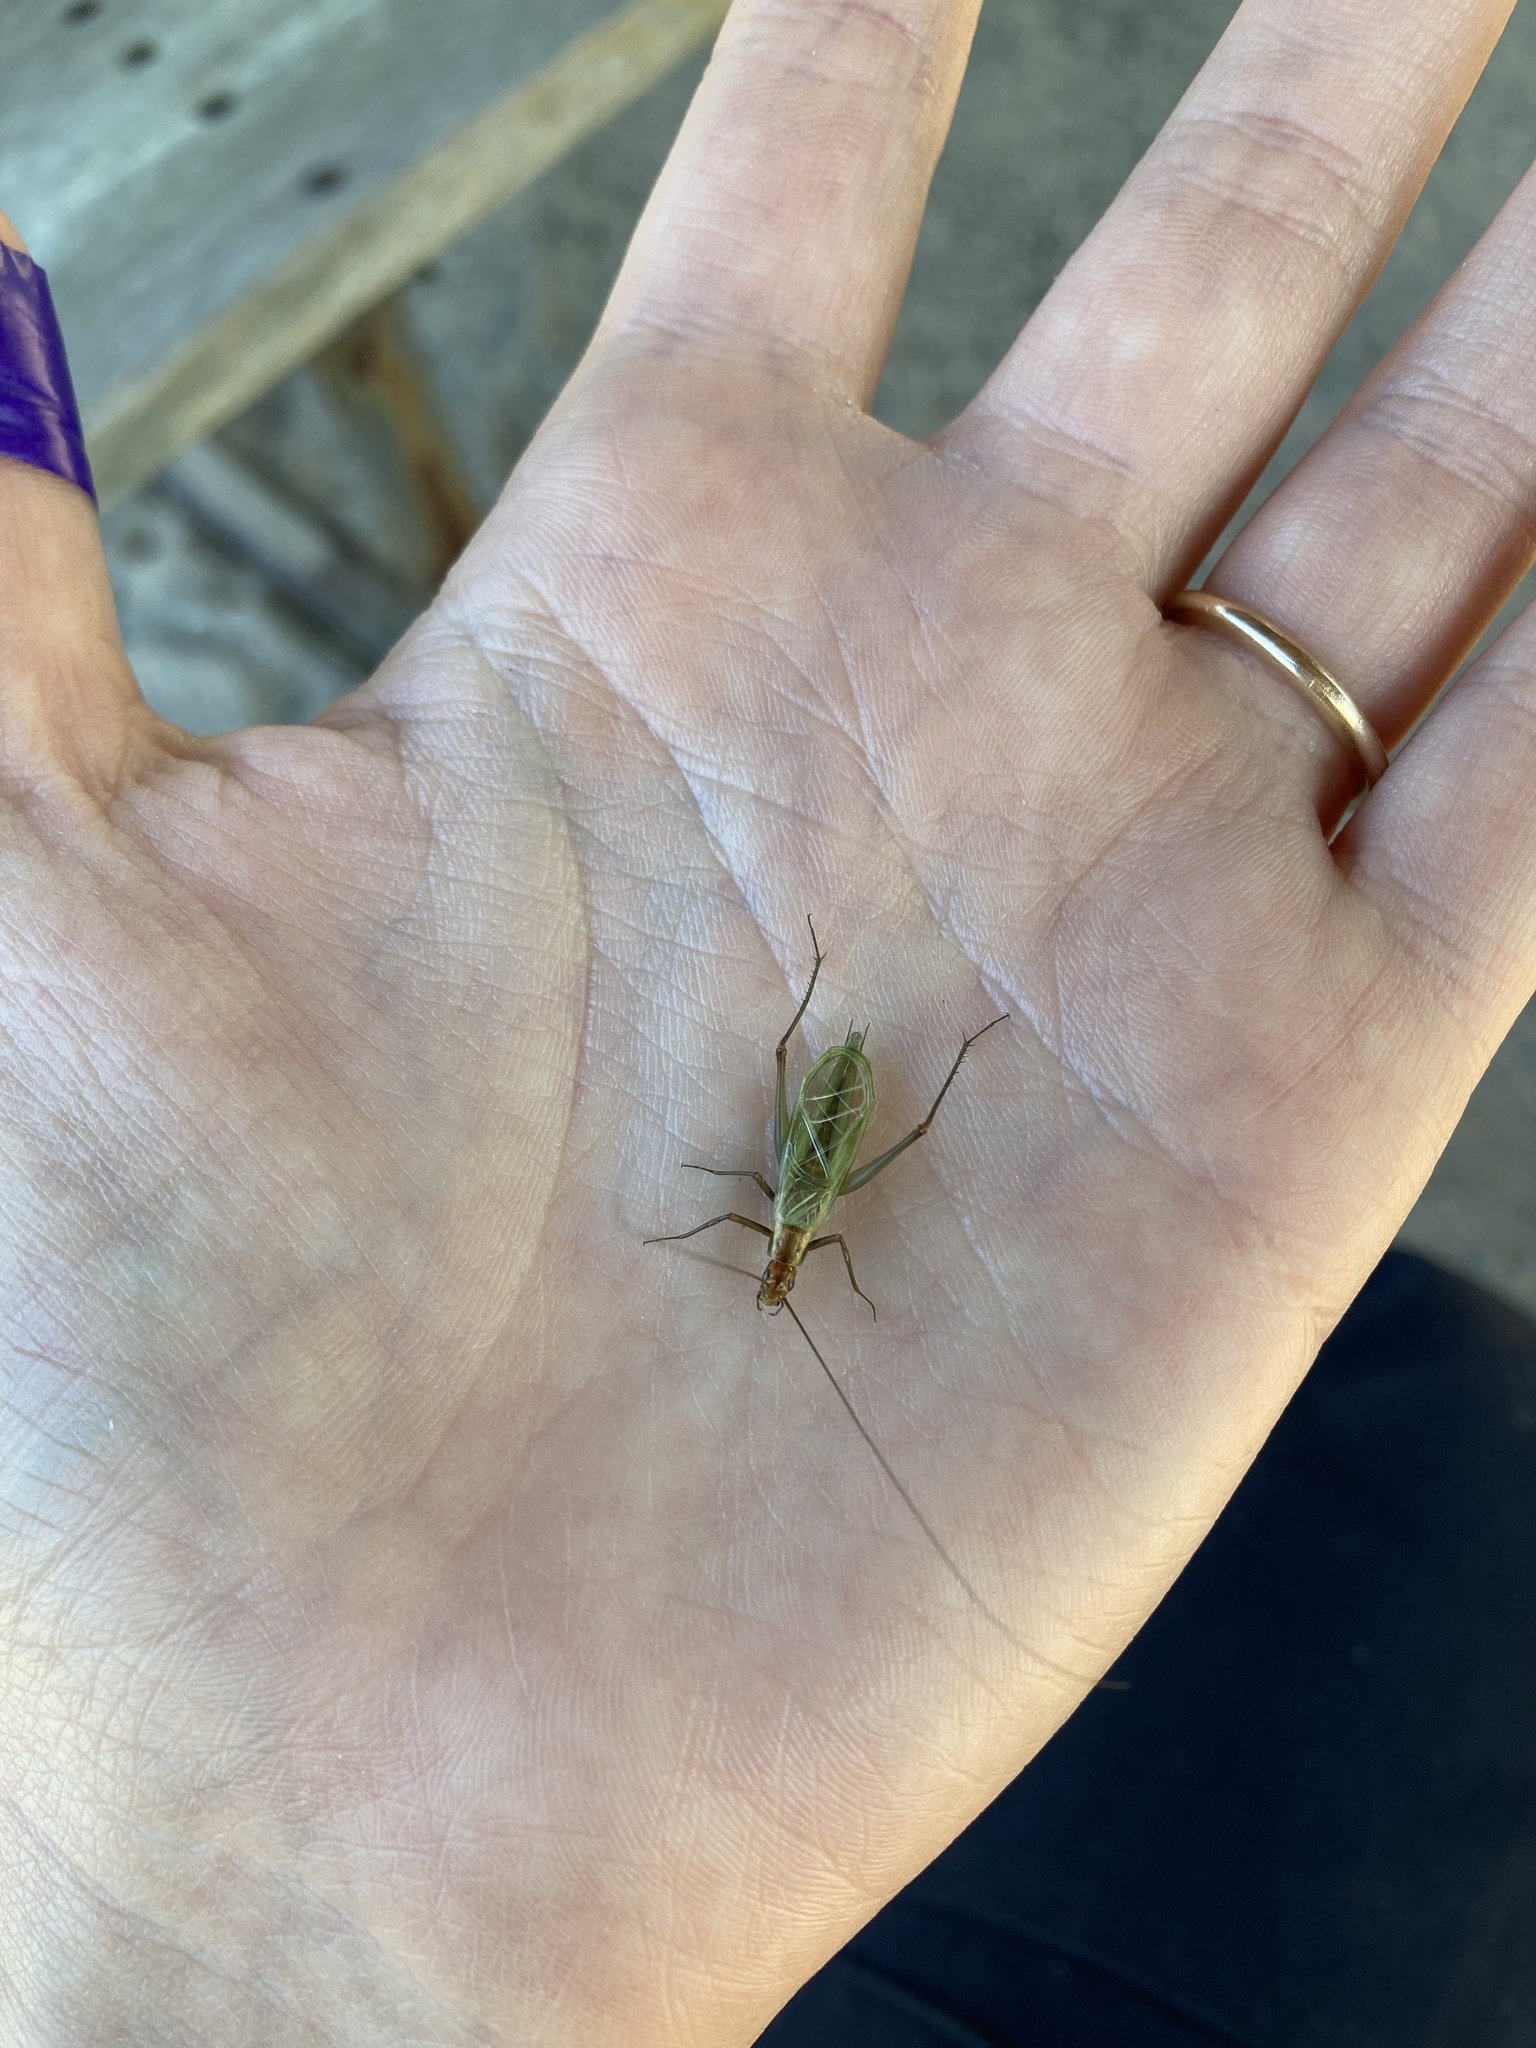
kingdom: Animalia
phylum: Arthropoda
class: Insecta
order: Orthoptera
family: Gryllidae
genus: Oecanthus
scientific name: Oecanthus pini
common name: Pine tree cricket
